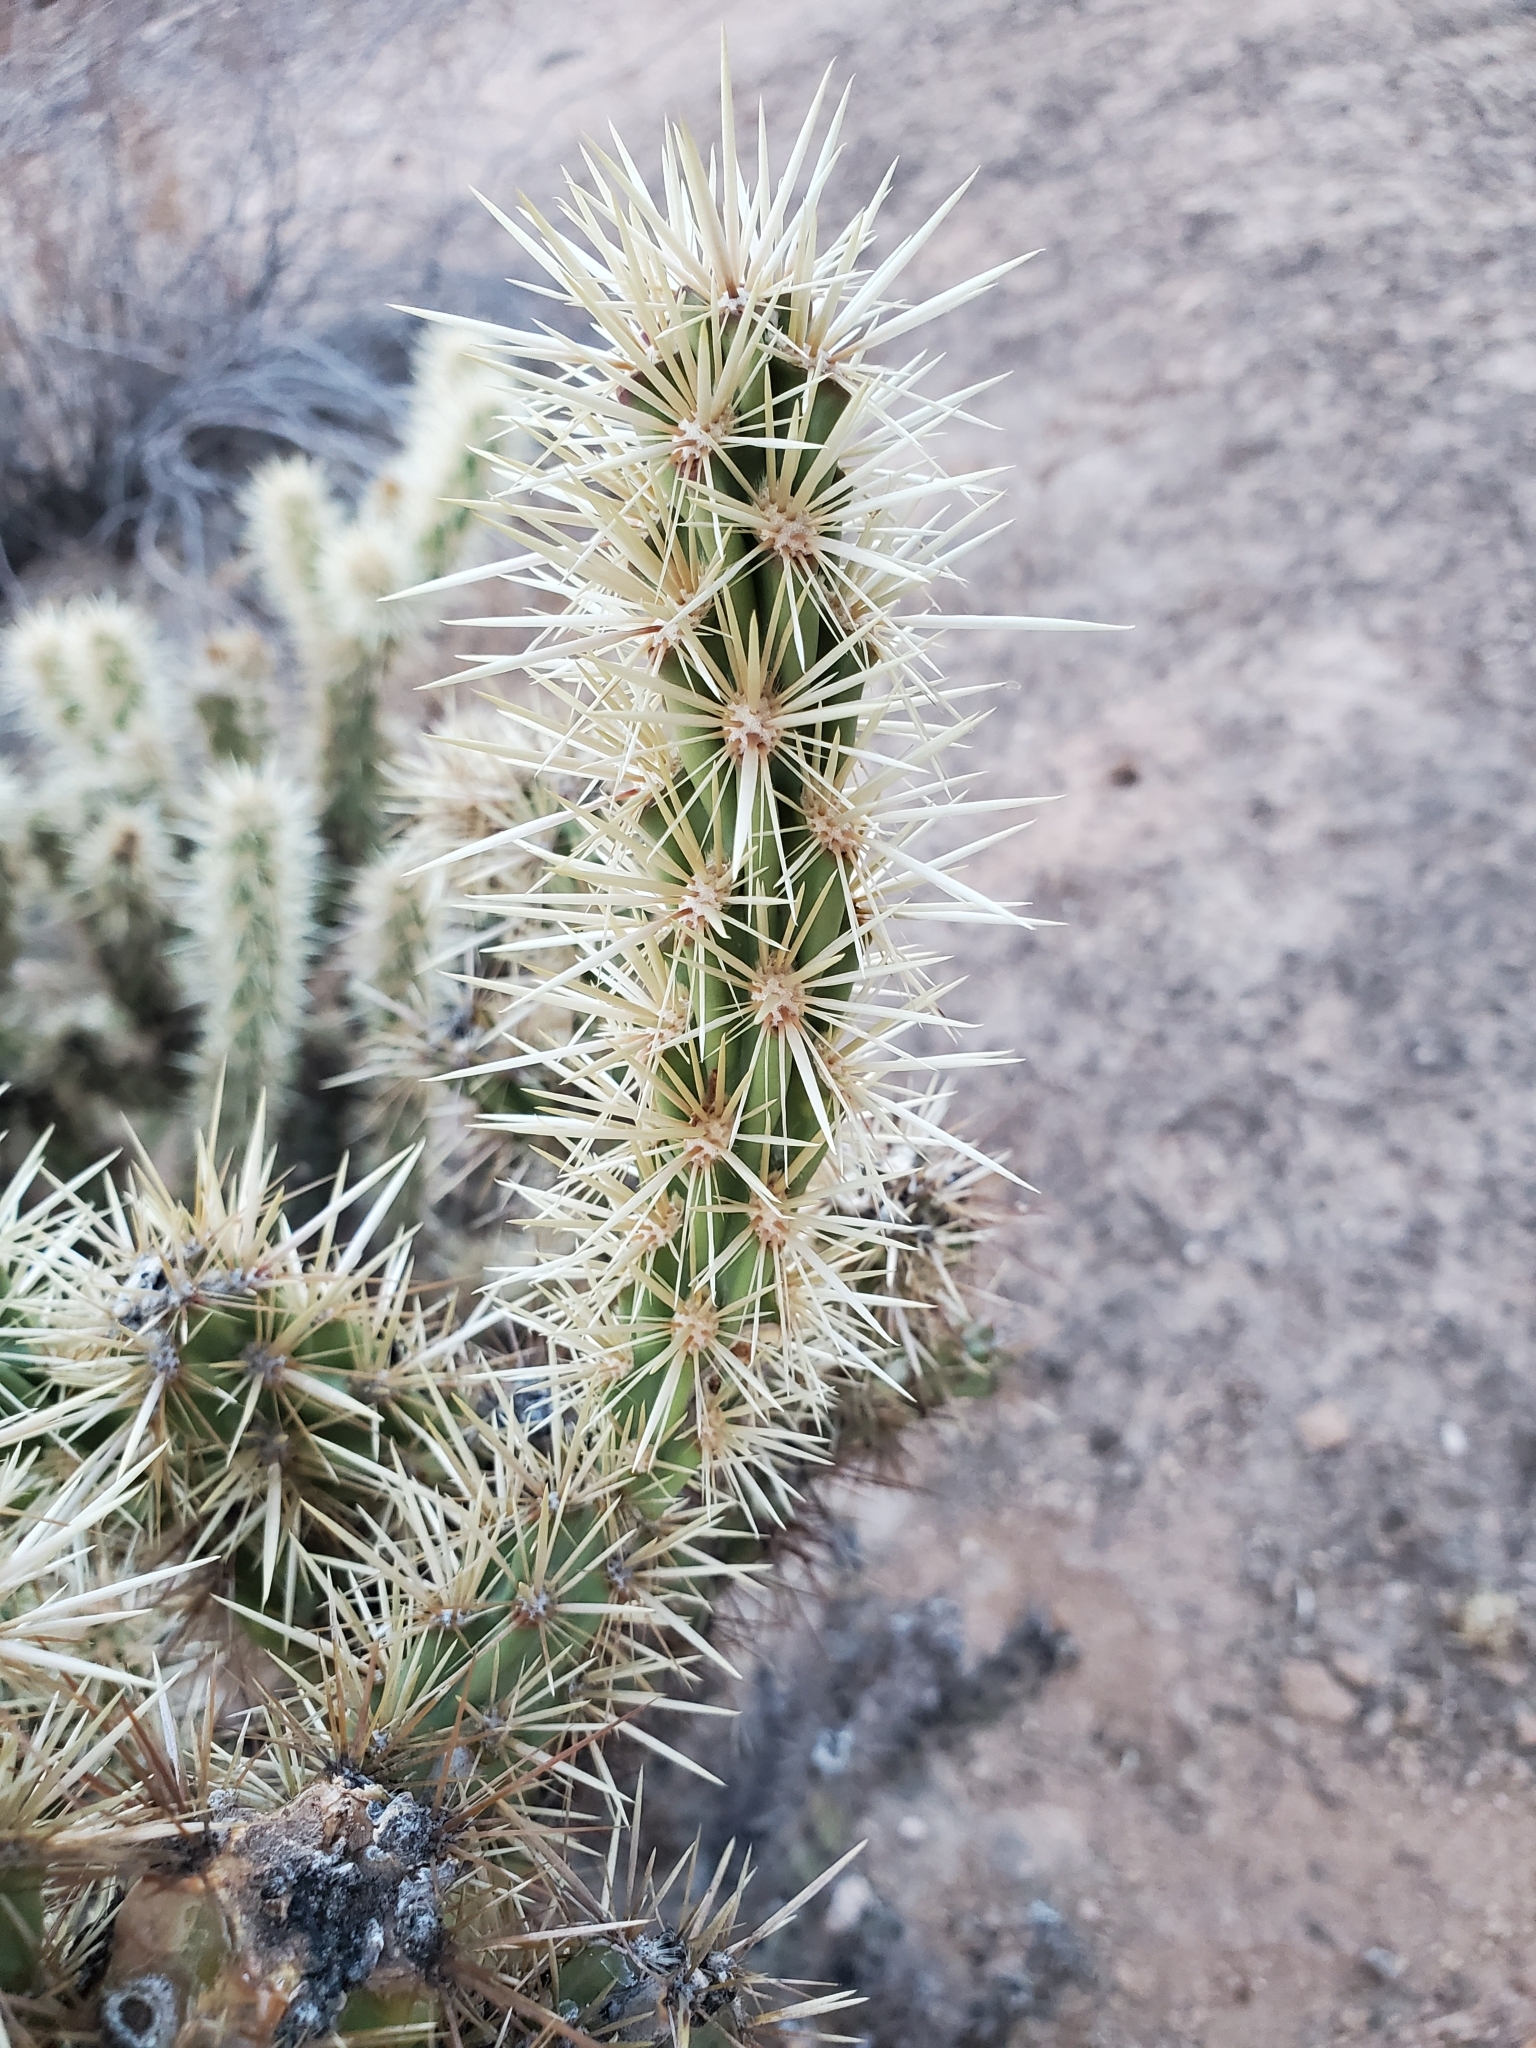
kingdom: Plantae
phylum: Tracheophyta
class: Magnoliopsida
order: Caryophyllales
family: Cactaceae
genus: Cylindropuntia
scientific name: Cylindropuntia acanthocarpa
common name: Buckhorn cholla
